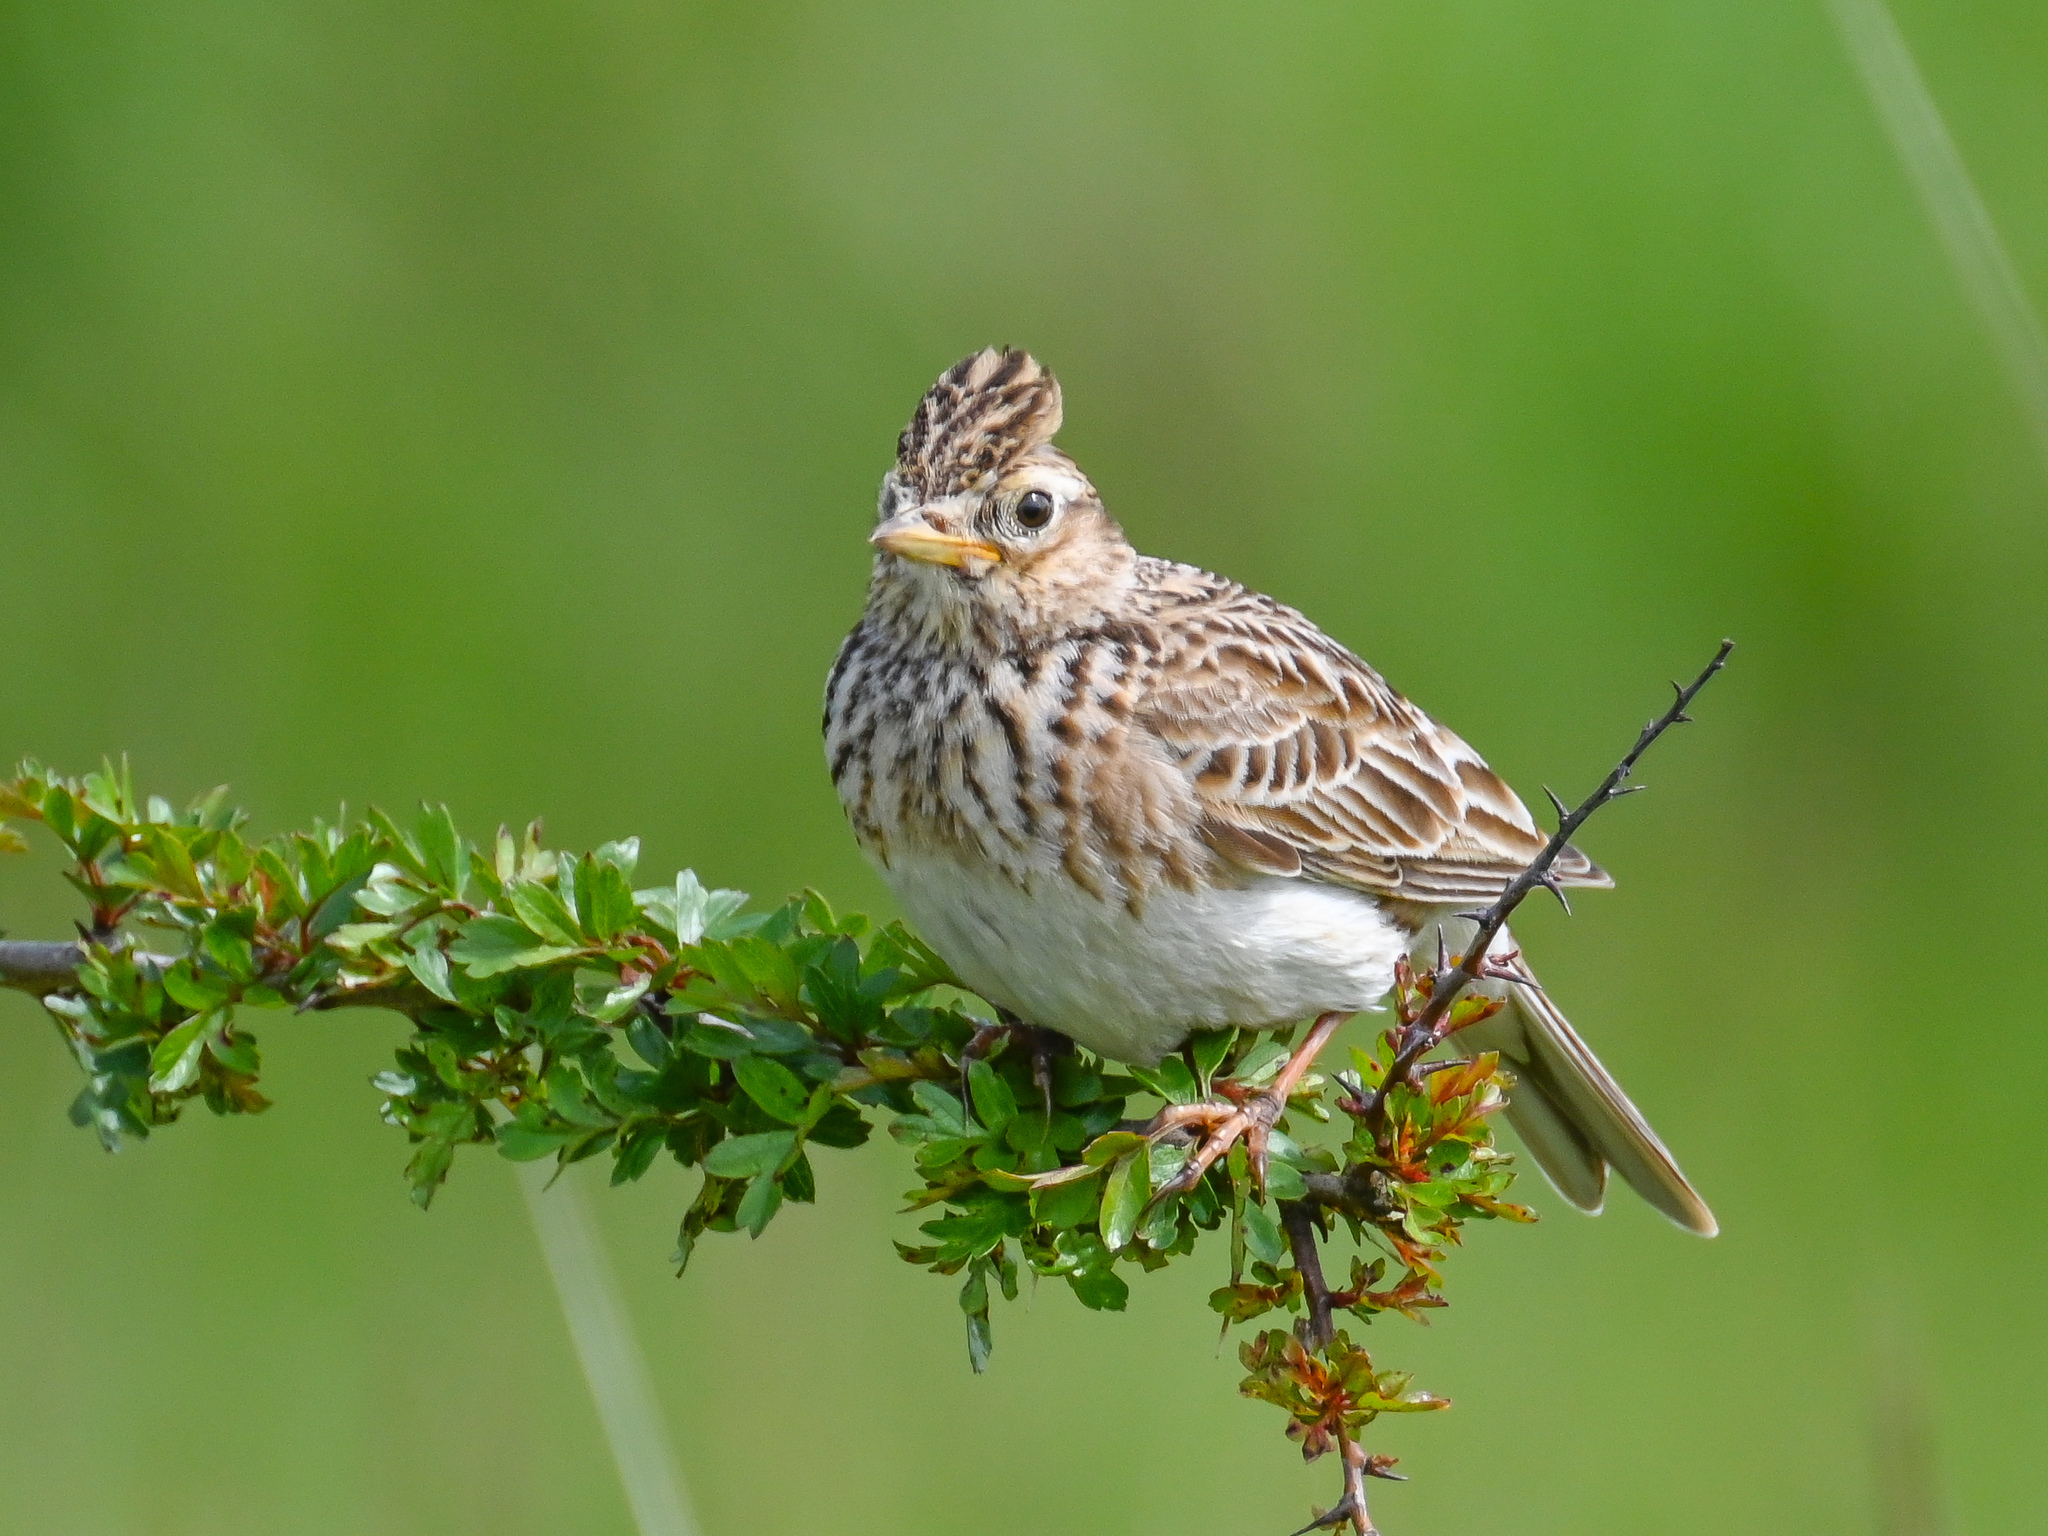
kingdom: Animalia
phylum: Chordata
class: Aves
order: Passeriformes
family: Alaudidae
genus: Alauda
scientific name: Alauda arvensis
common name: Eurasian skylark
